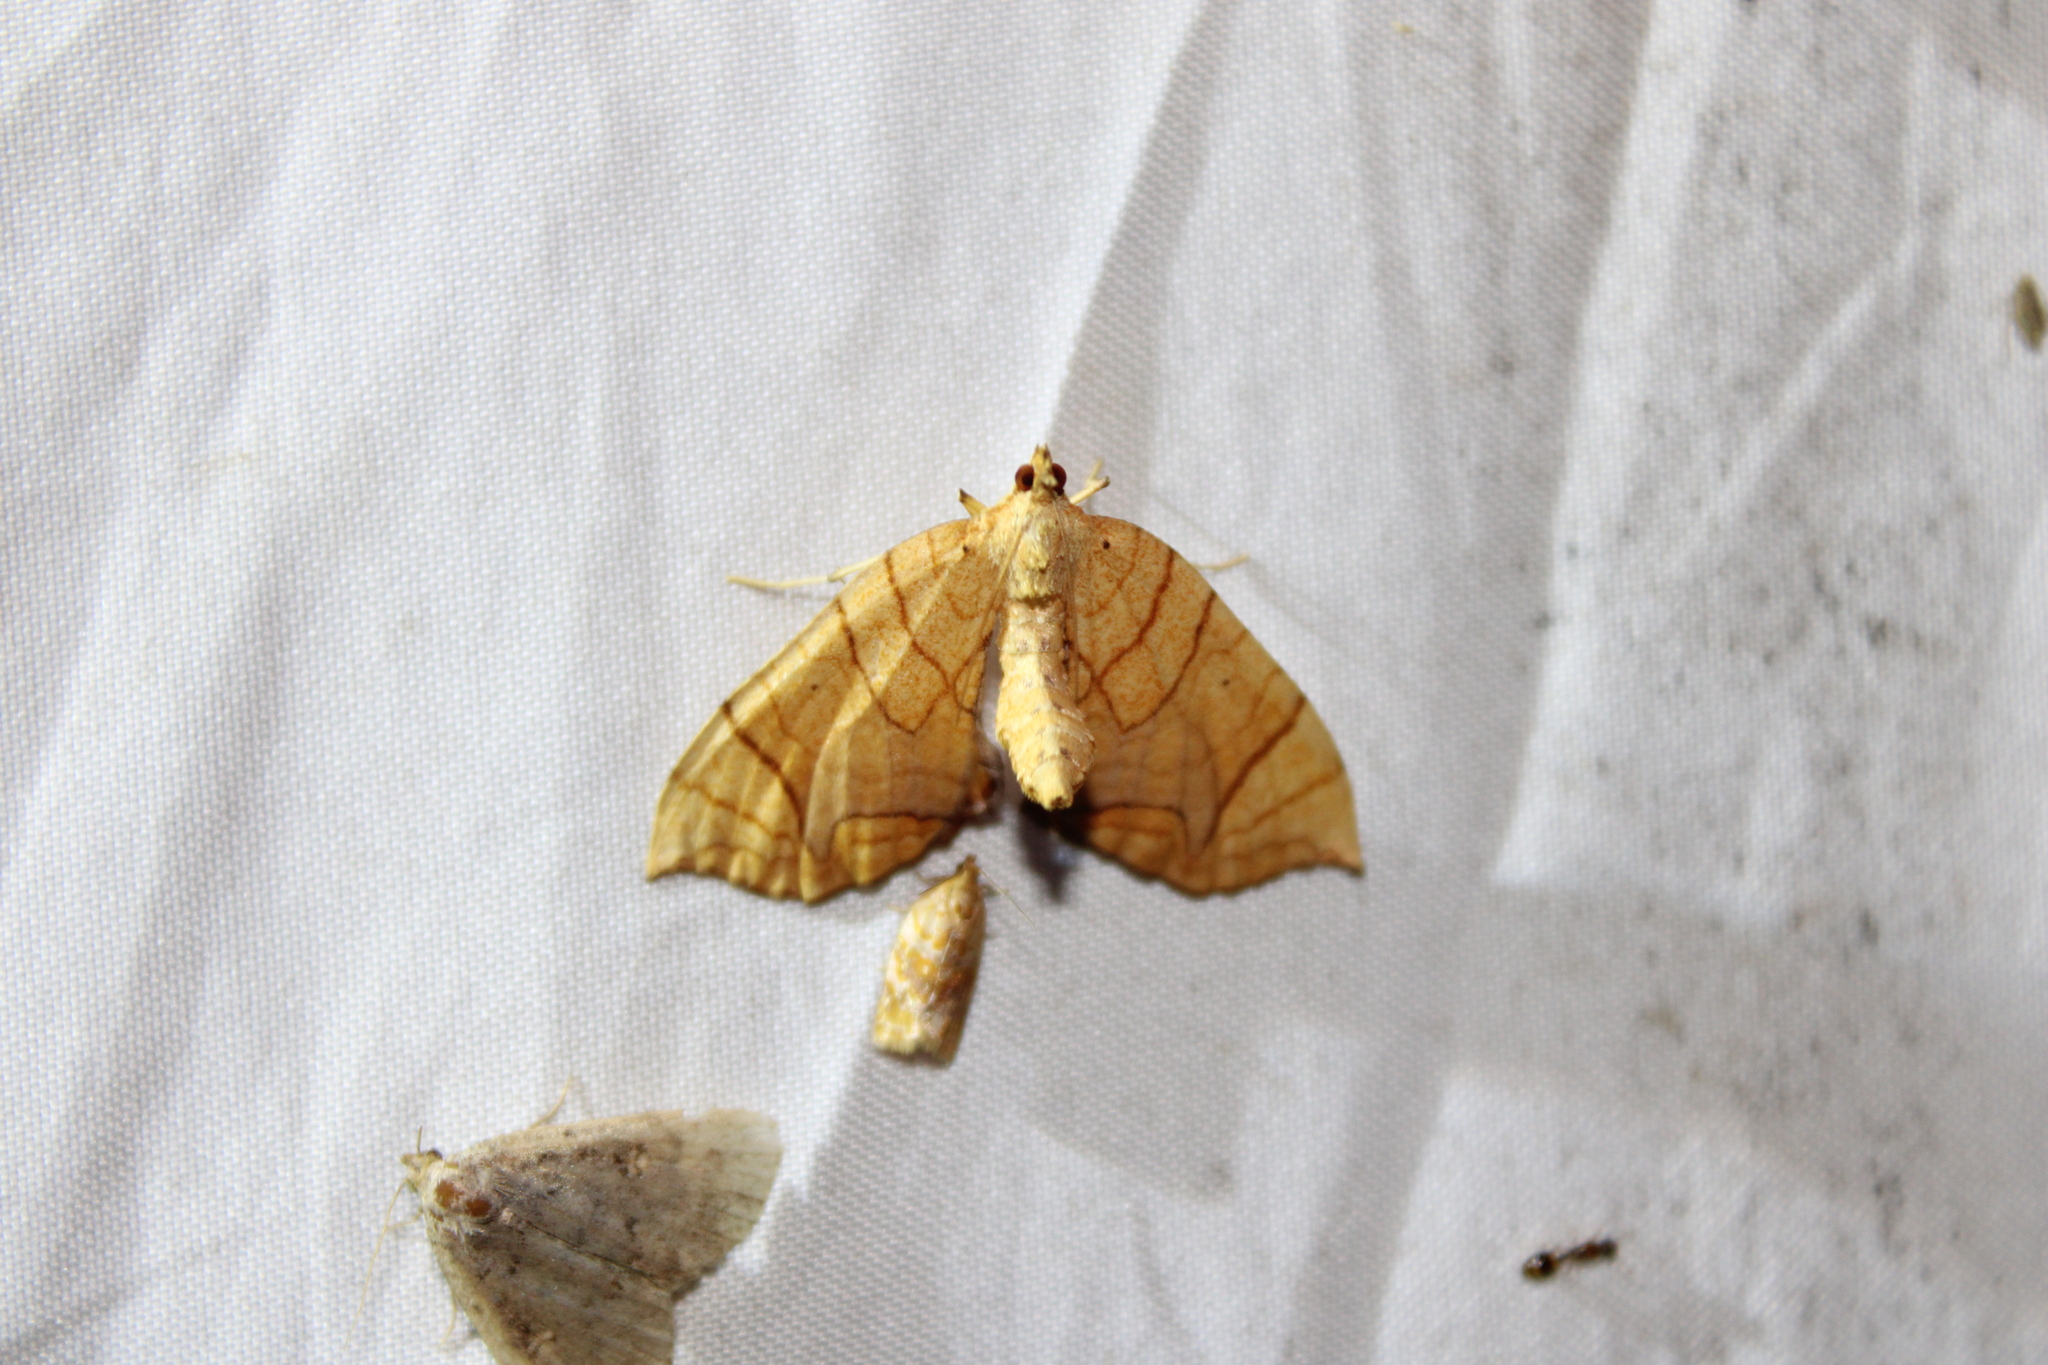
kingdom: Animalia
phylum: Arthropoda
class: Insecta
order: Lepidoptera
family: Geometridae
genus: Eulithis
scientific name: Eulithis
